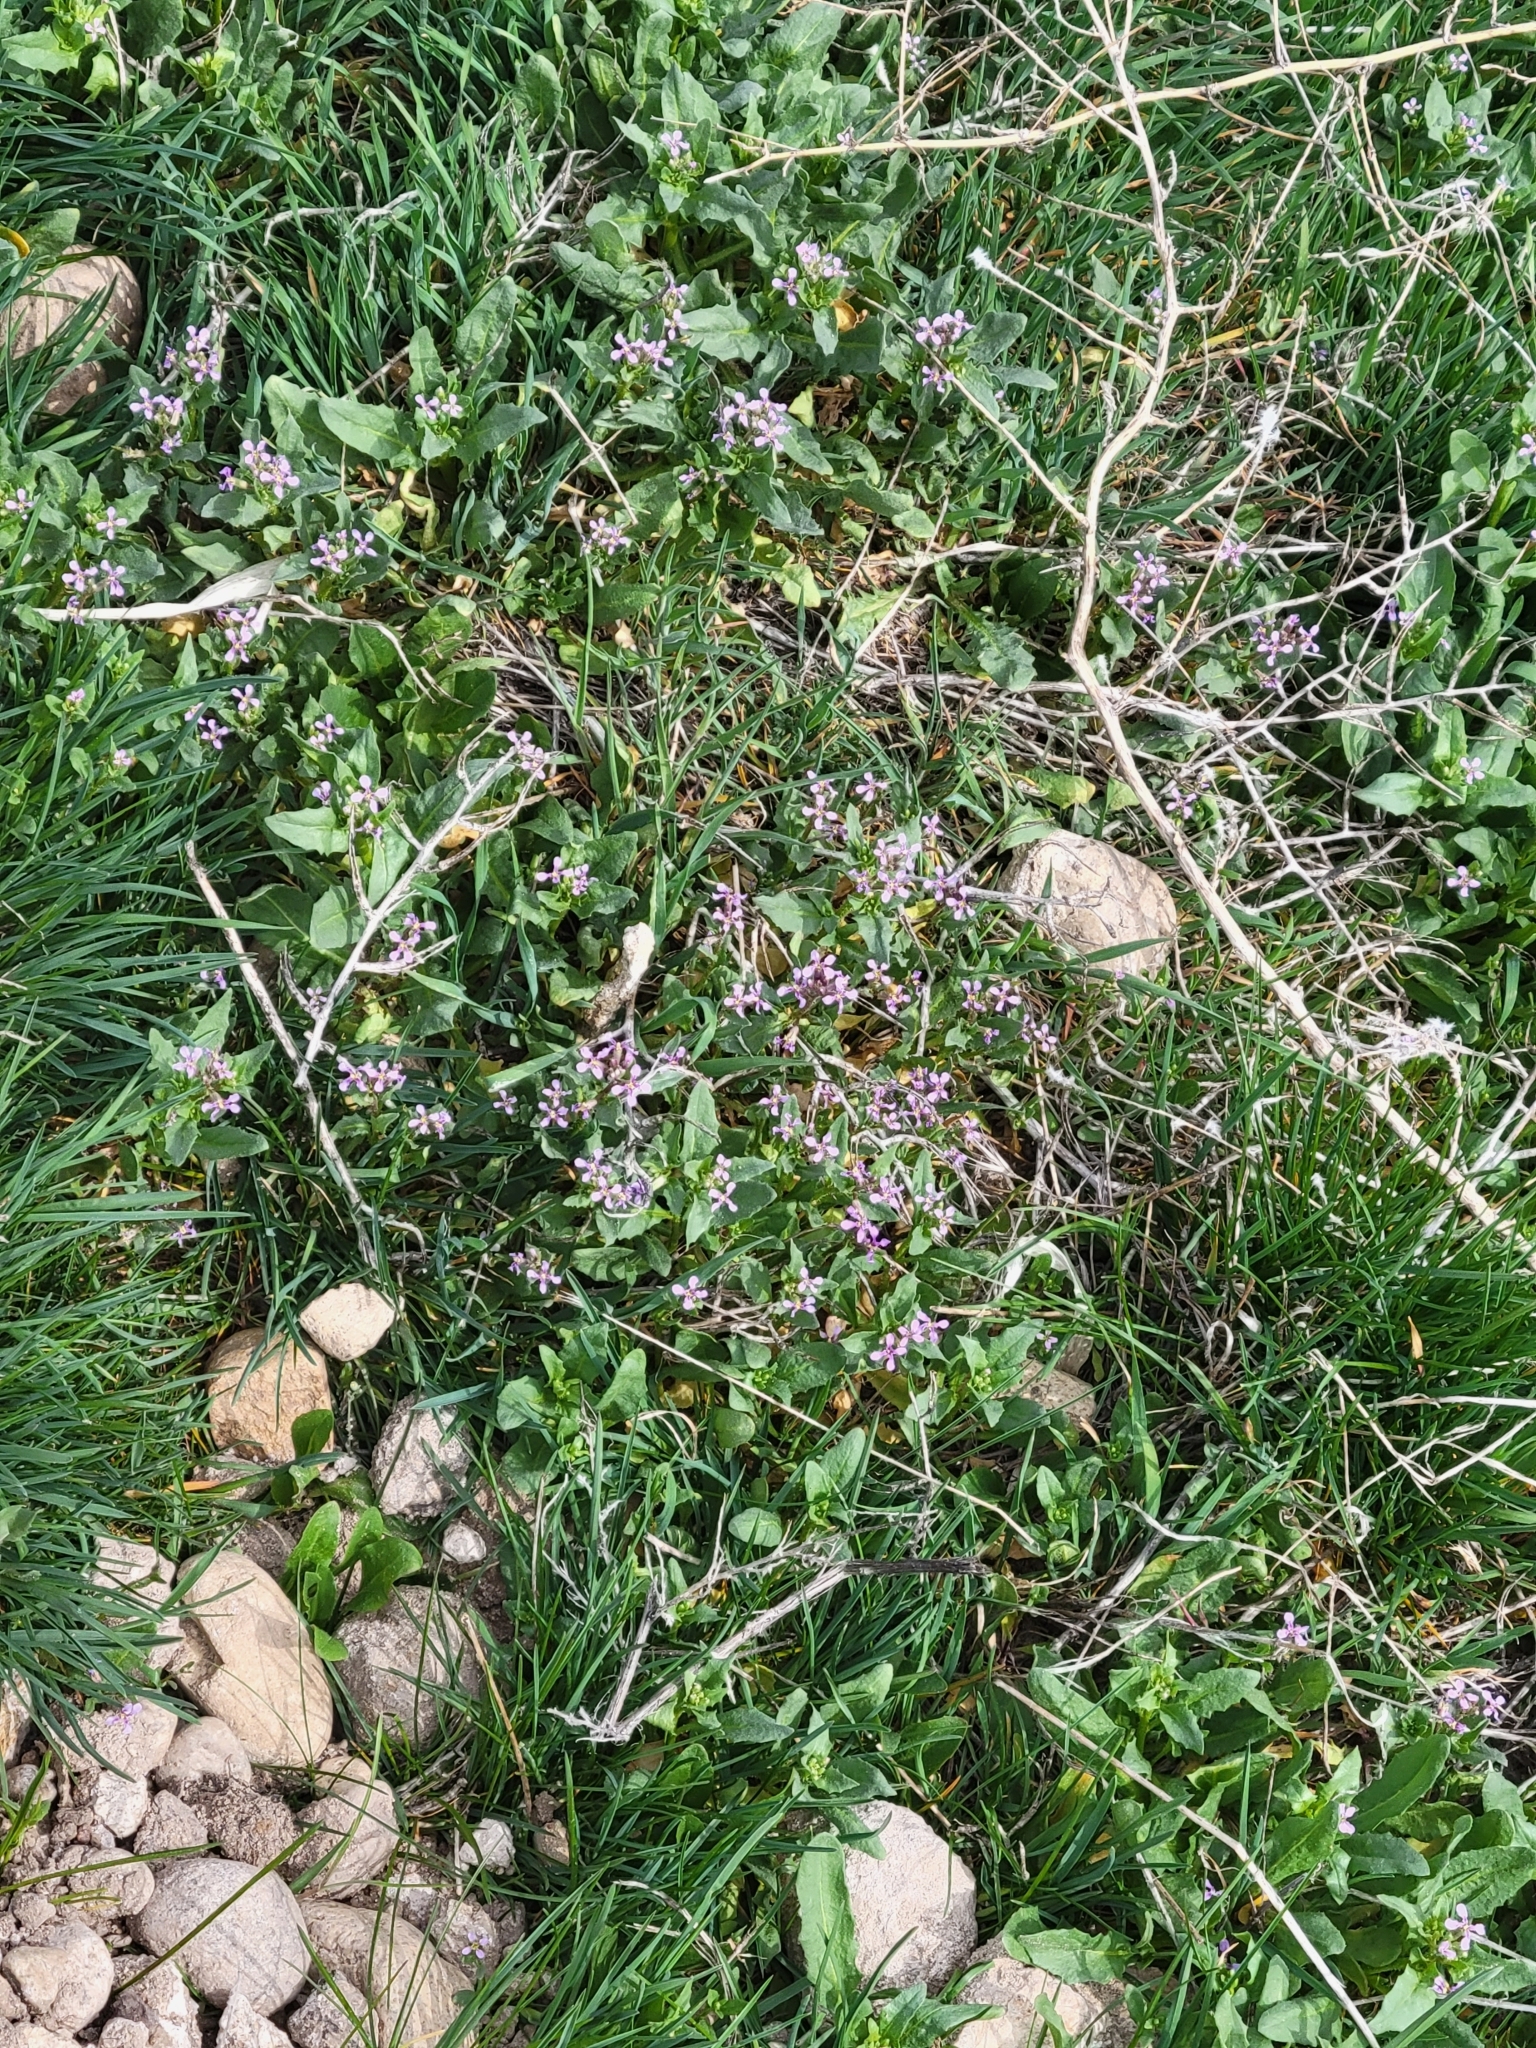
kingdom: Plantae
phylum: Tracheophyta
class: Magnoliopsida
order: Brassicales
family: Brassicaceae
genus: Chorispora
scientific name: Chorispora tenella
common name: Crossflower
